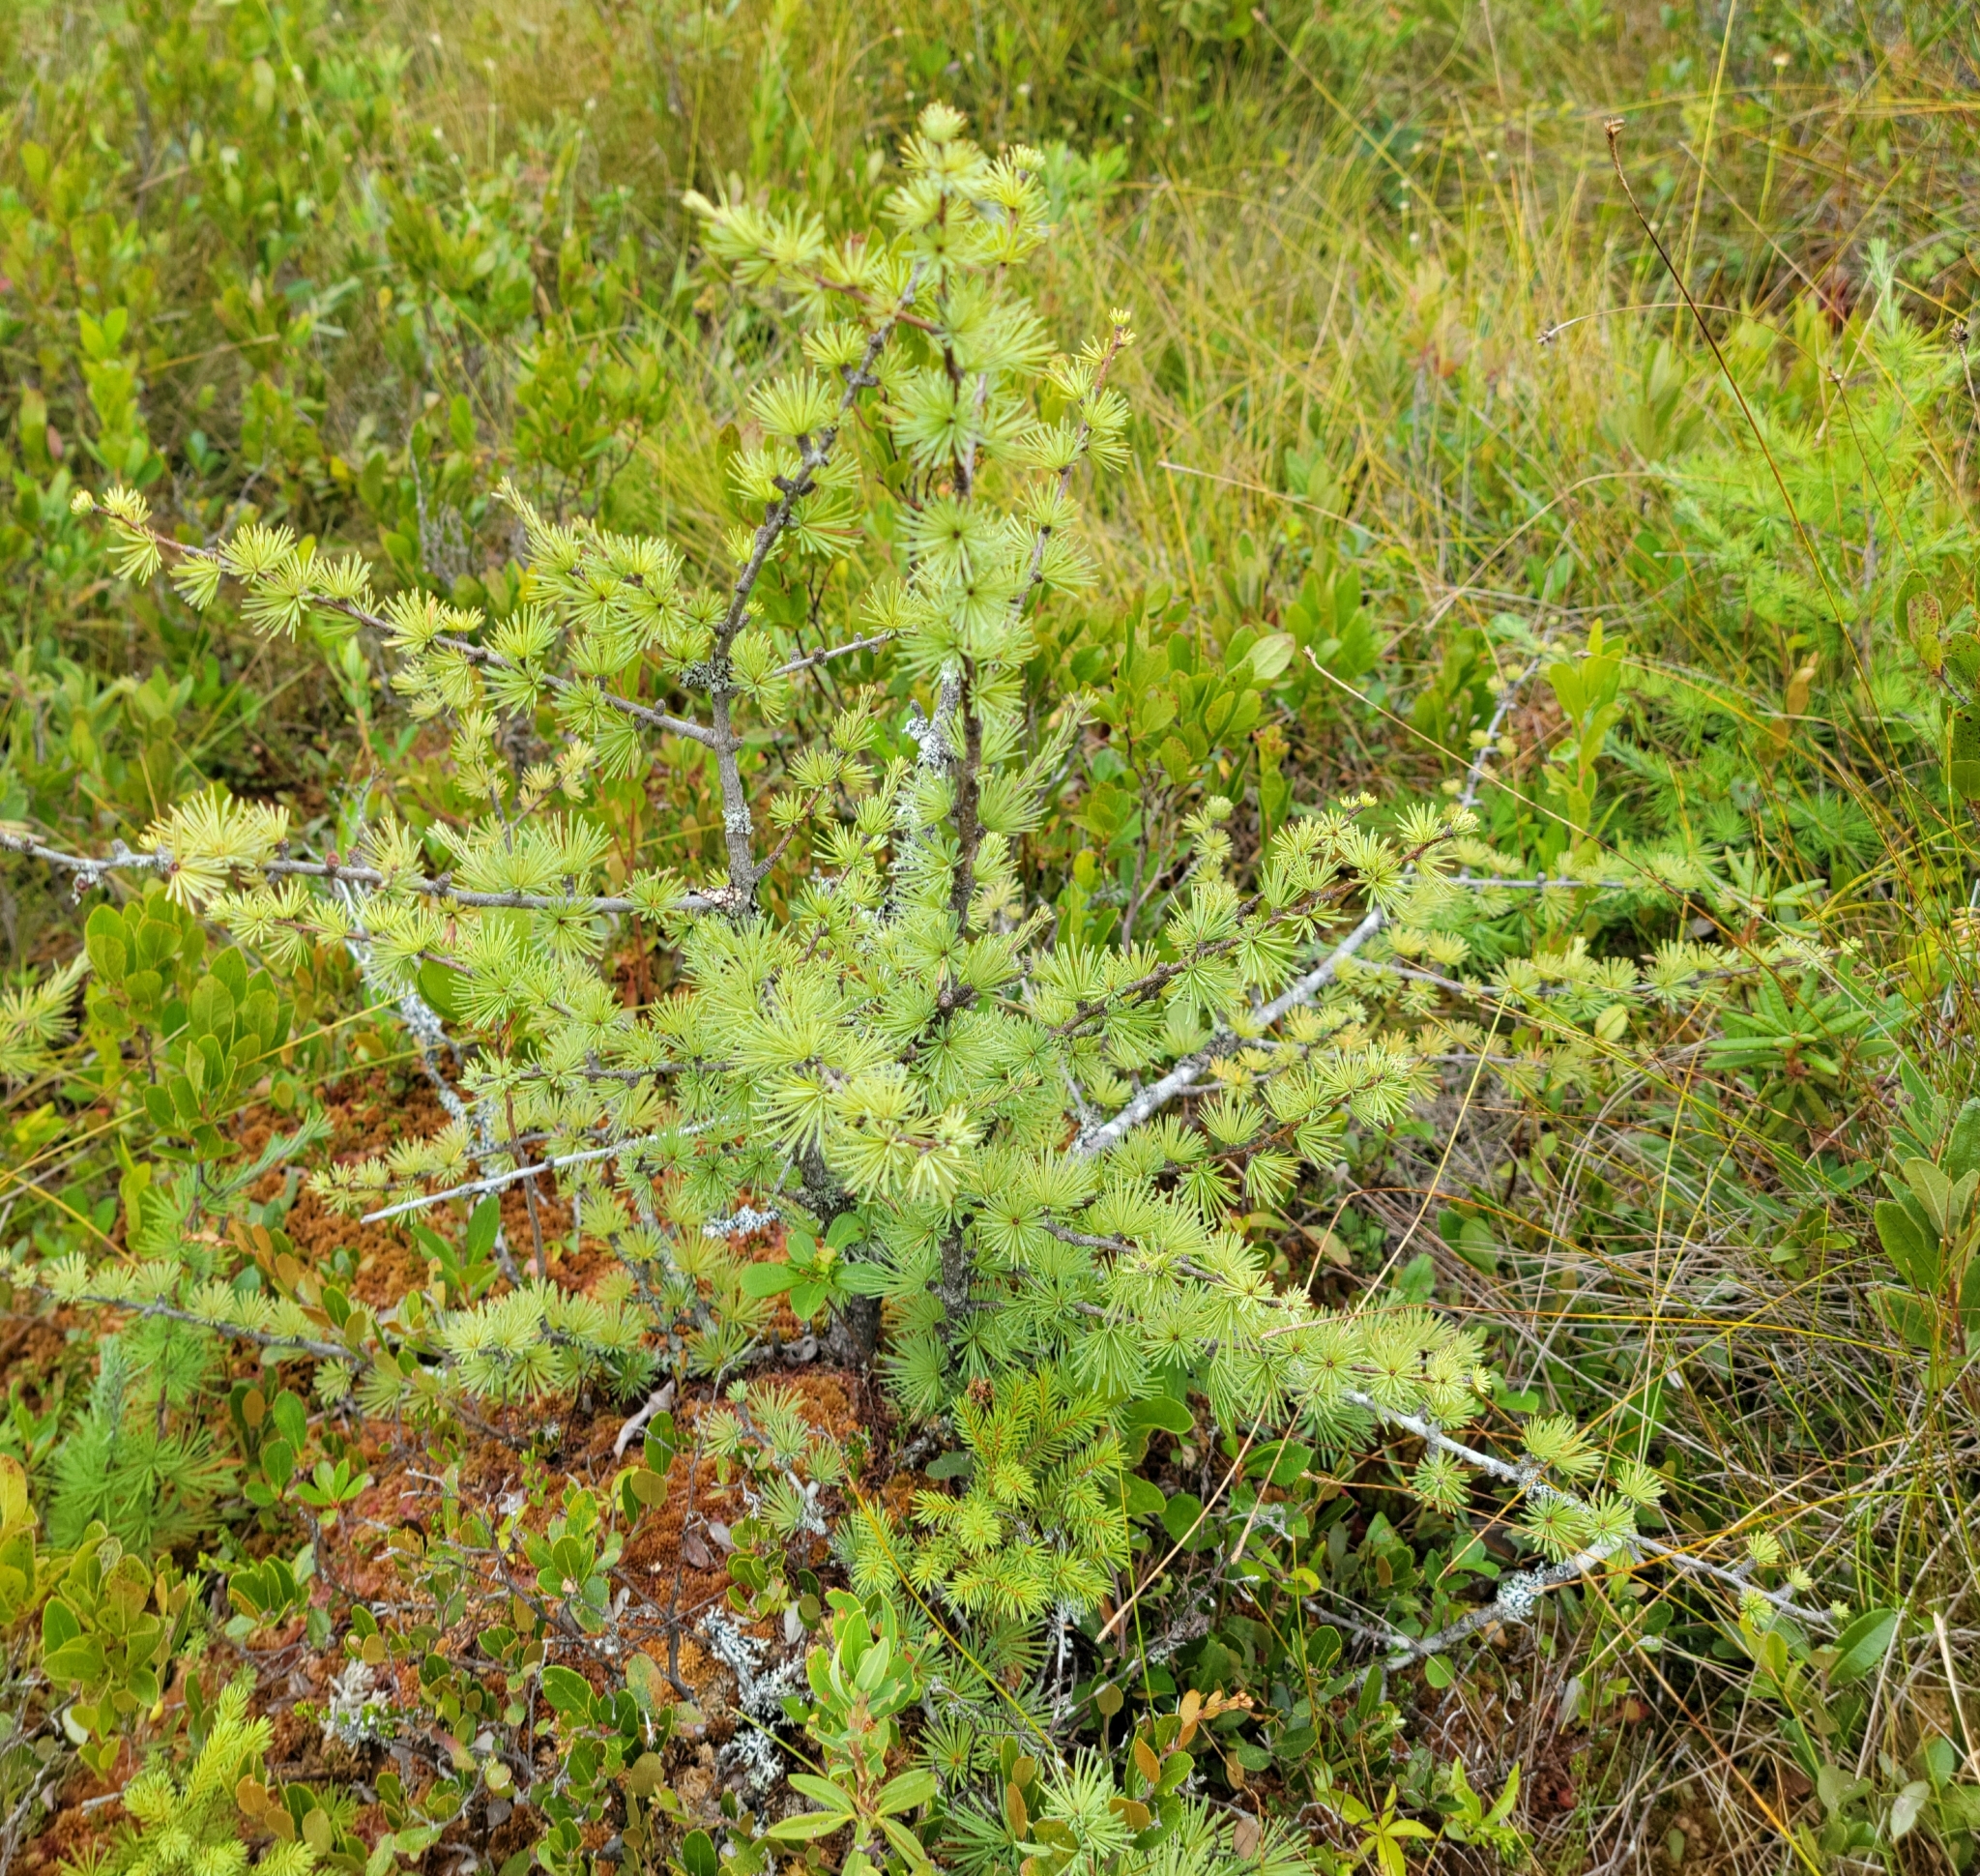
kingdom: Plantae
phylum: Tracheophyta
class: Pinopsida
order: Pinales
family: Pinaceae
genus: Larix
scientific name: Larix laricina
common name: American larch
